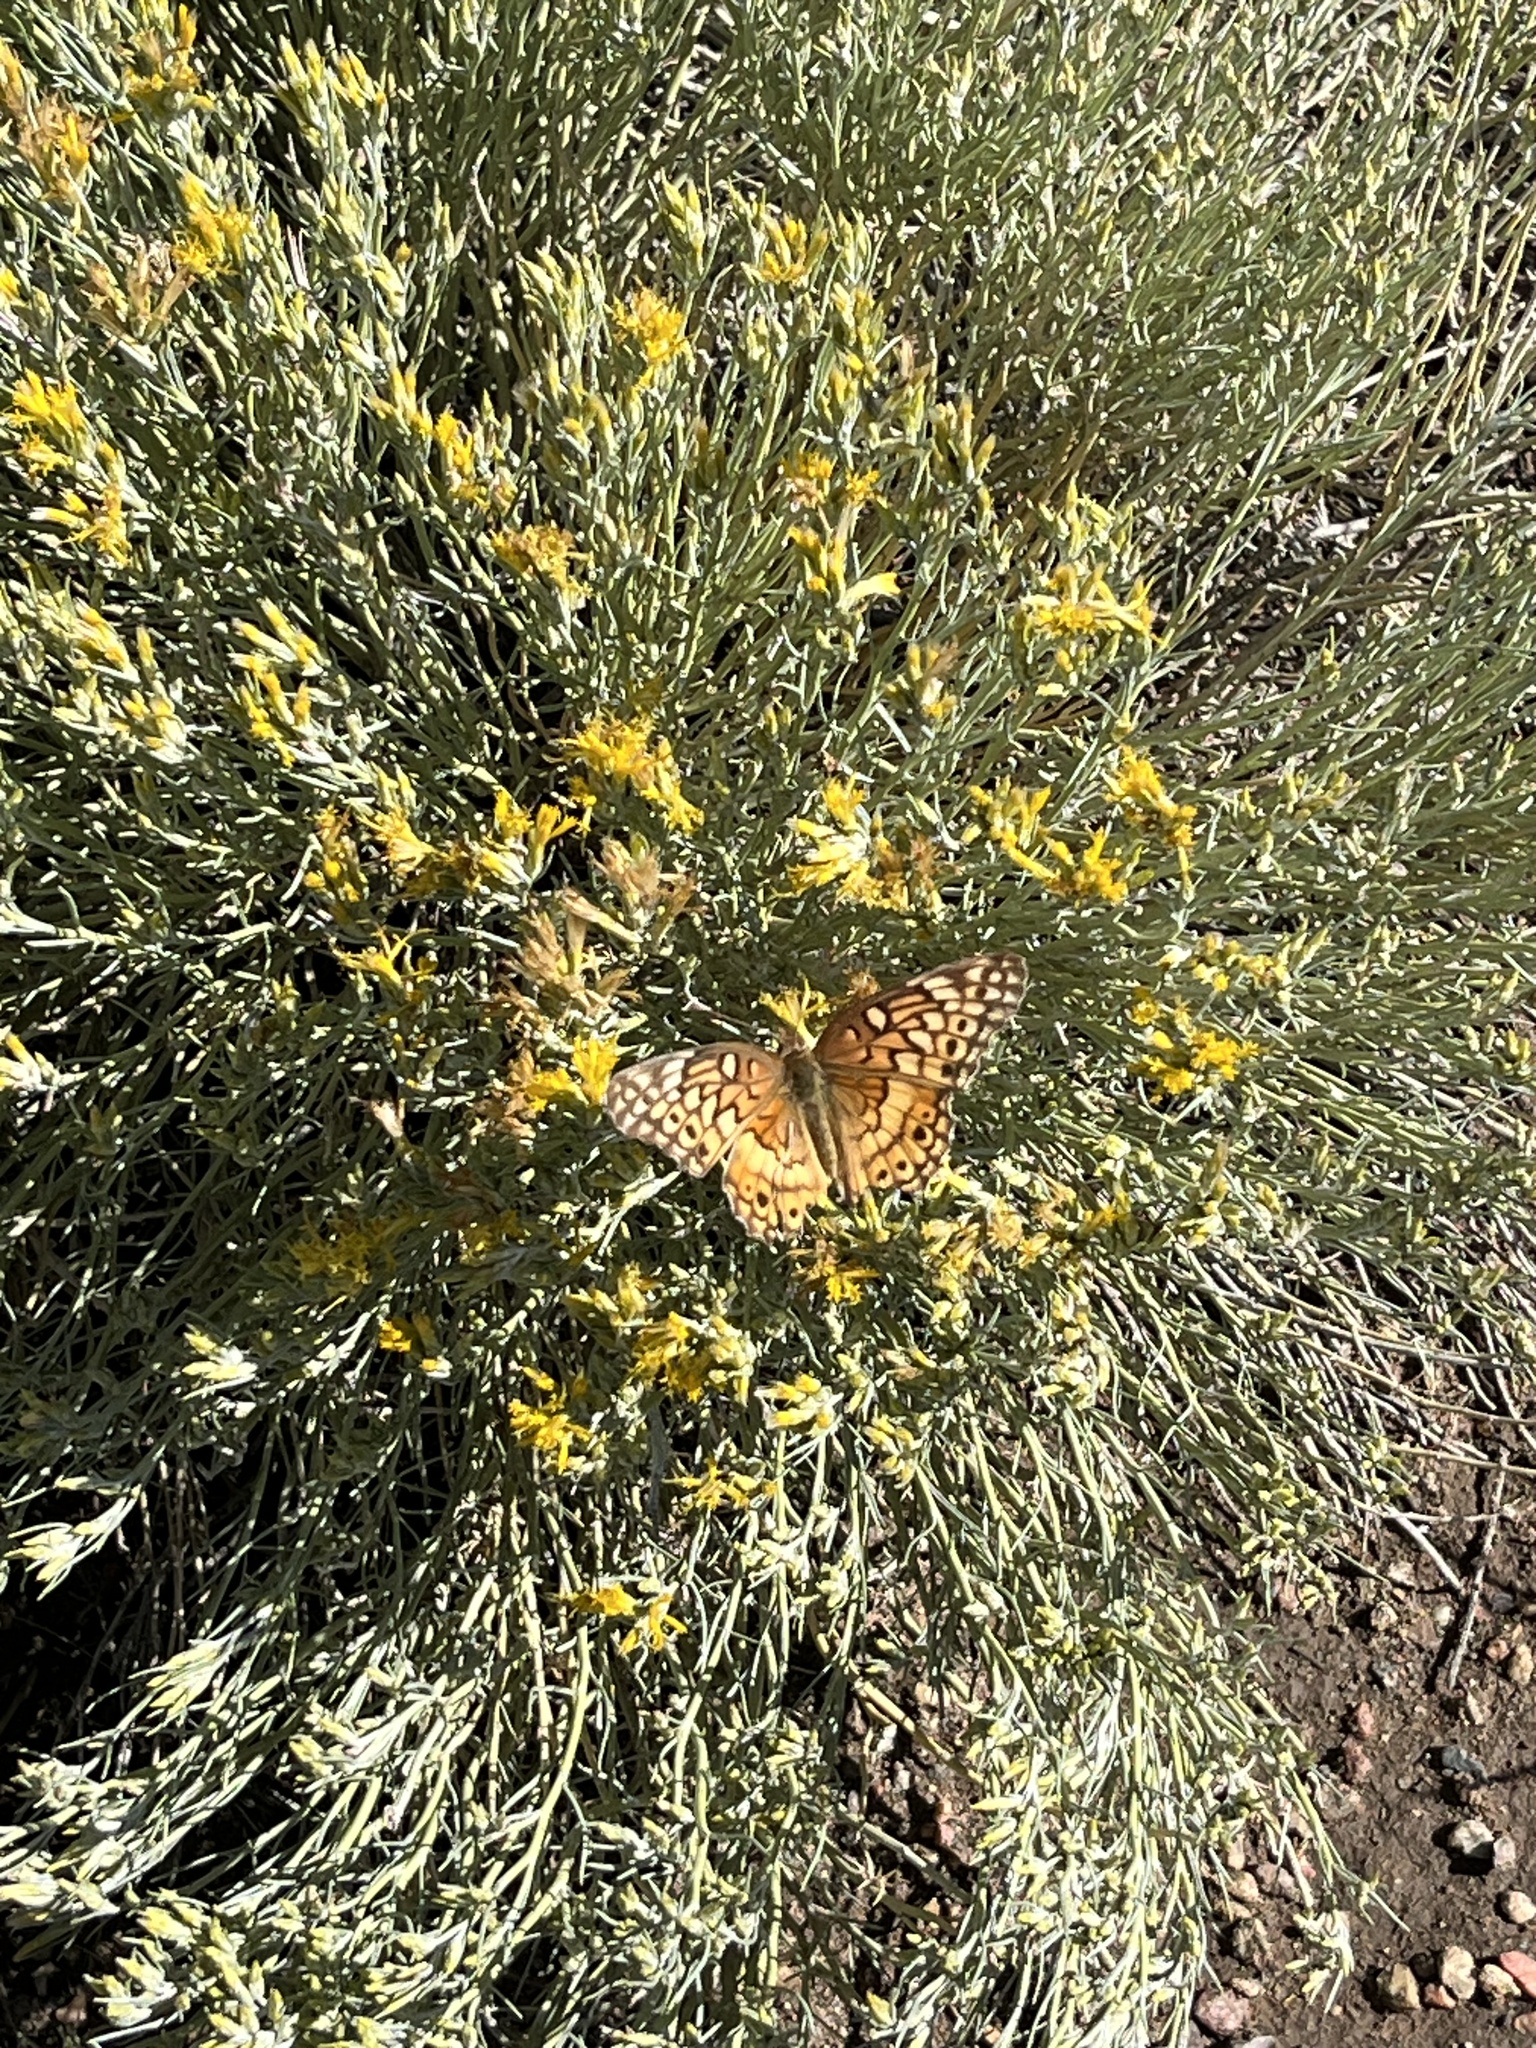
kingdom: Animalia
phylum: Arthropoda
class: Insecta
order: Lepidoptera
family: Nymphalidae
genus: Euptoieta
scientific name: Euptoieta claudia
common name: Variegated fritillary
